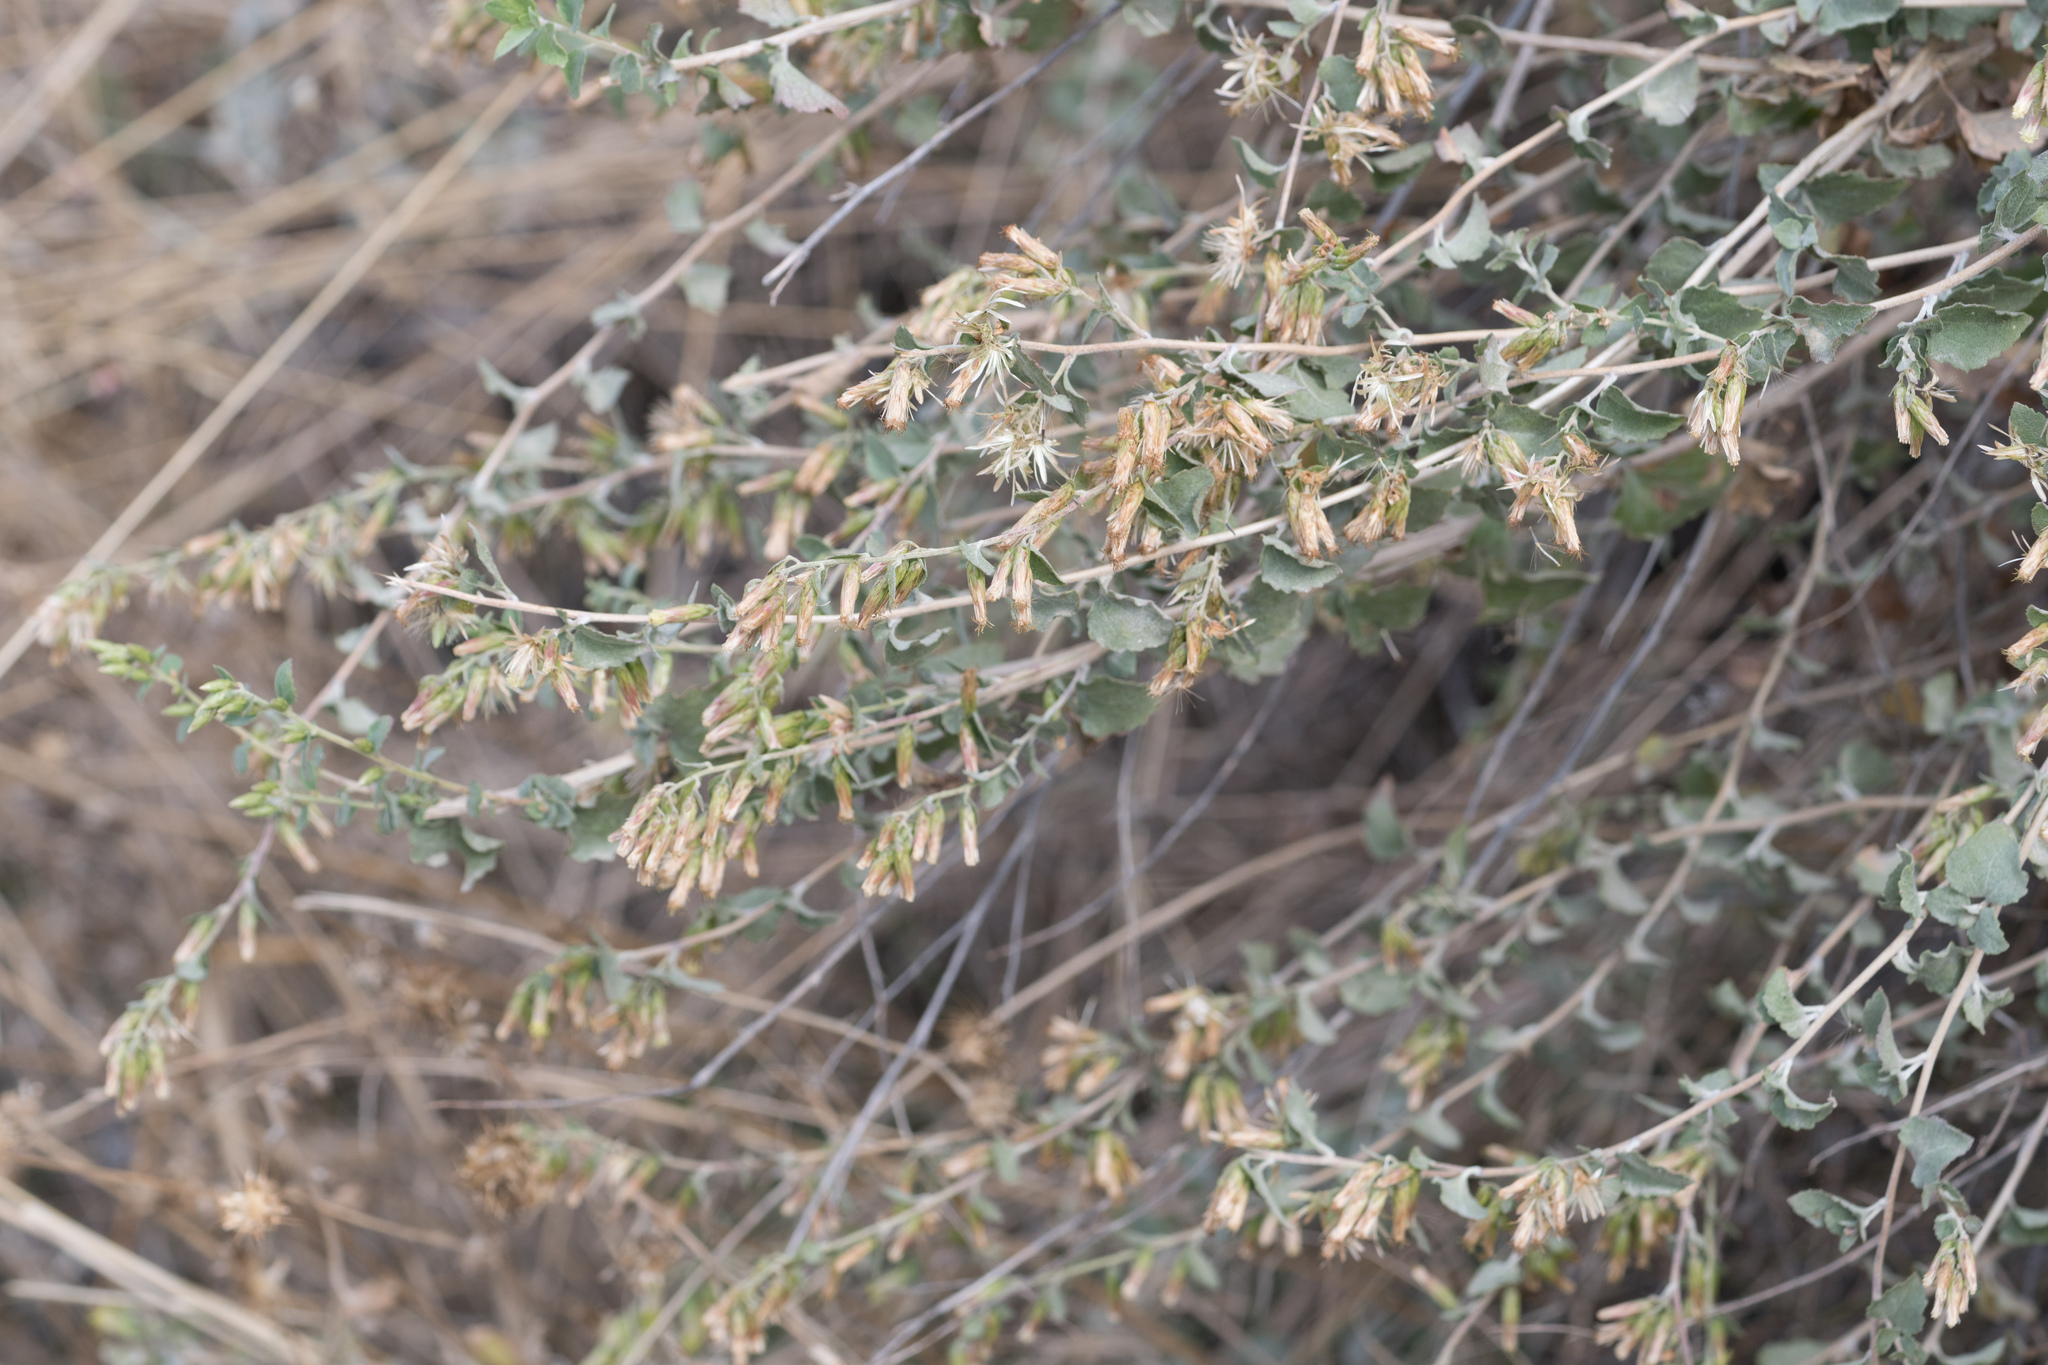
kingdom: Plantae
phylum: Tracheophyta
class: Magnoliopsida
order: Asterales
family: Asteraceae
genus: Brickellia
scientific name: Brickellia californica
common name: California brickellbush
